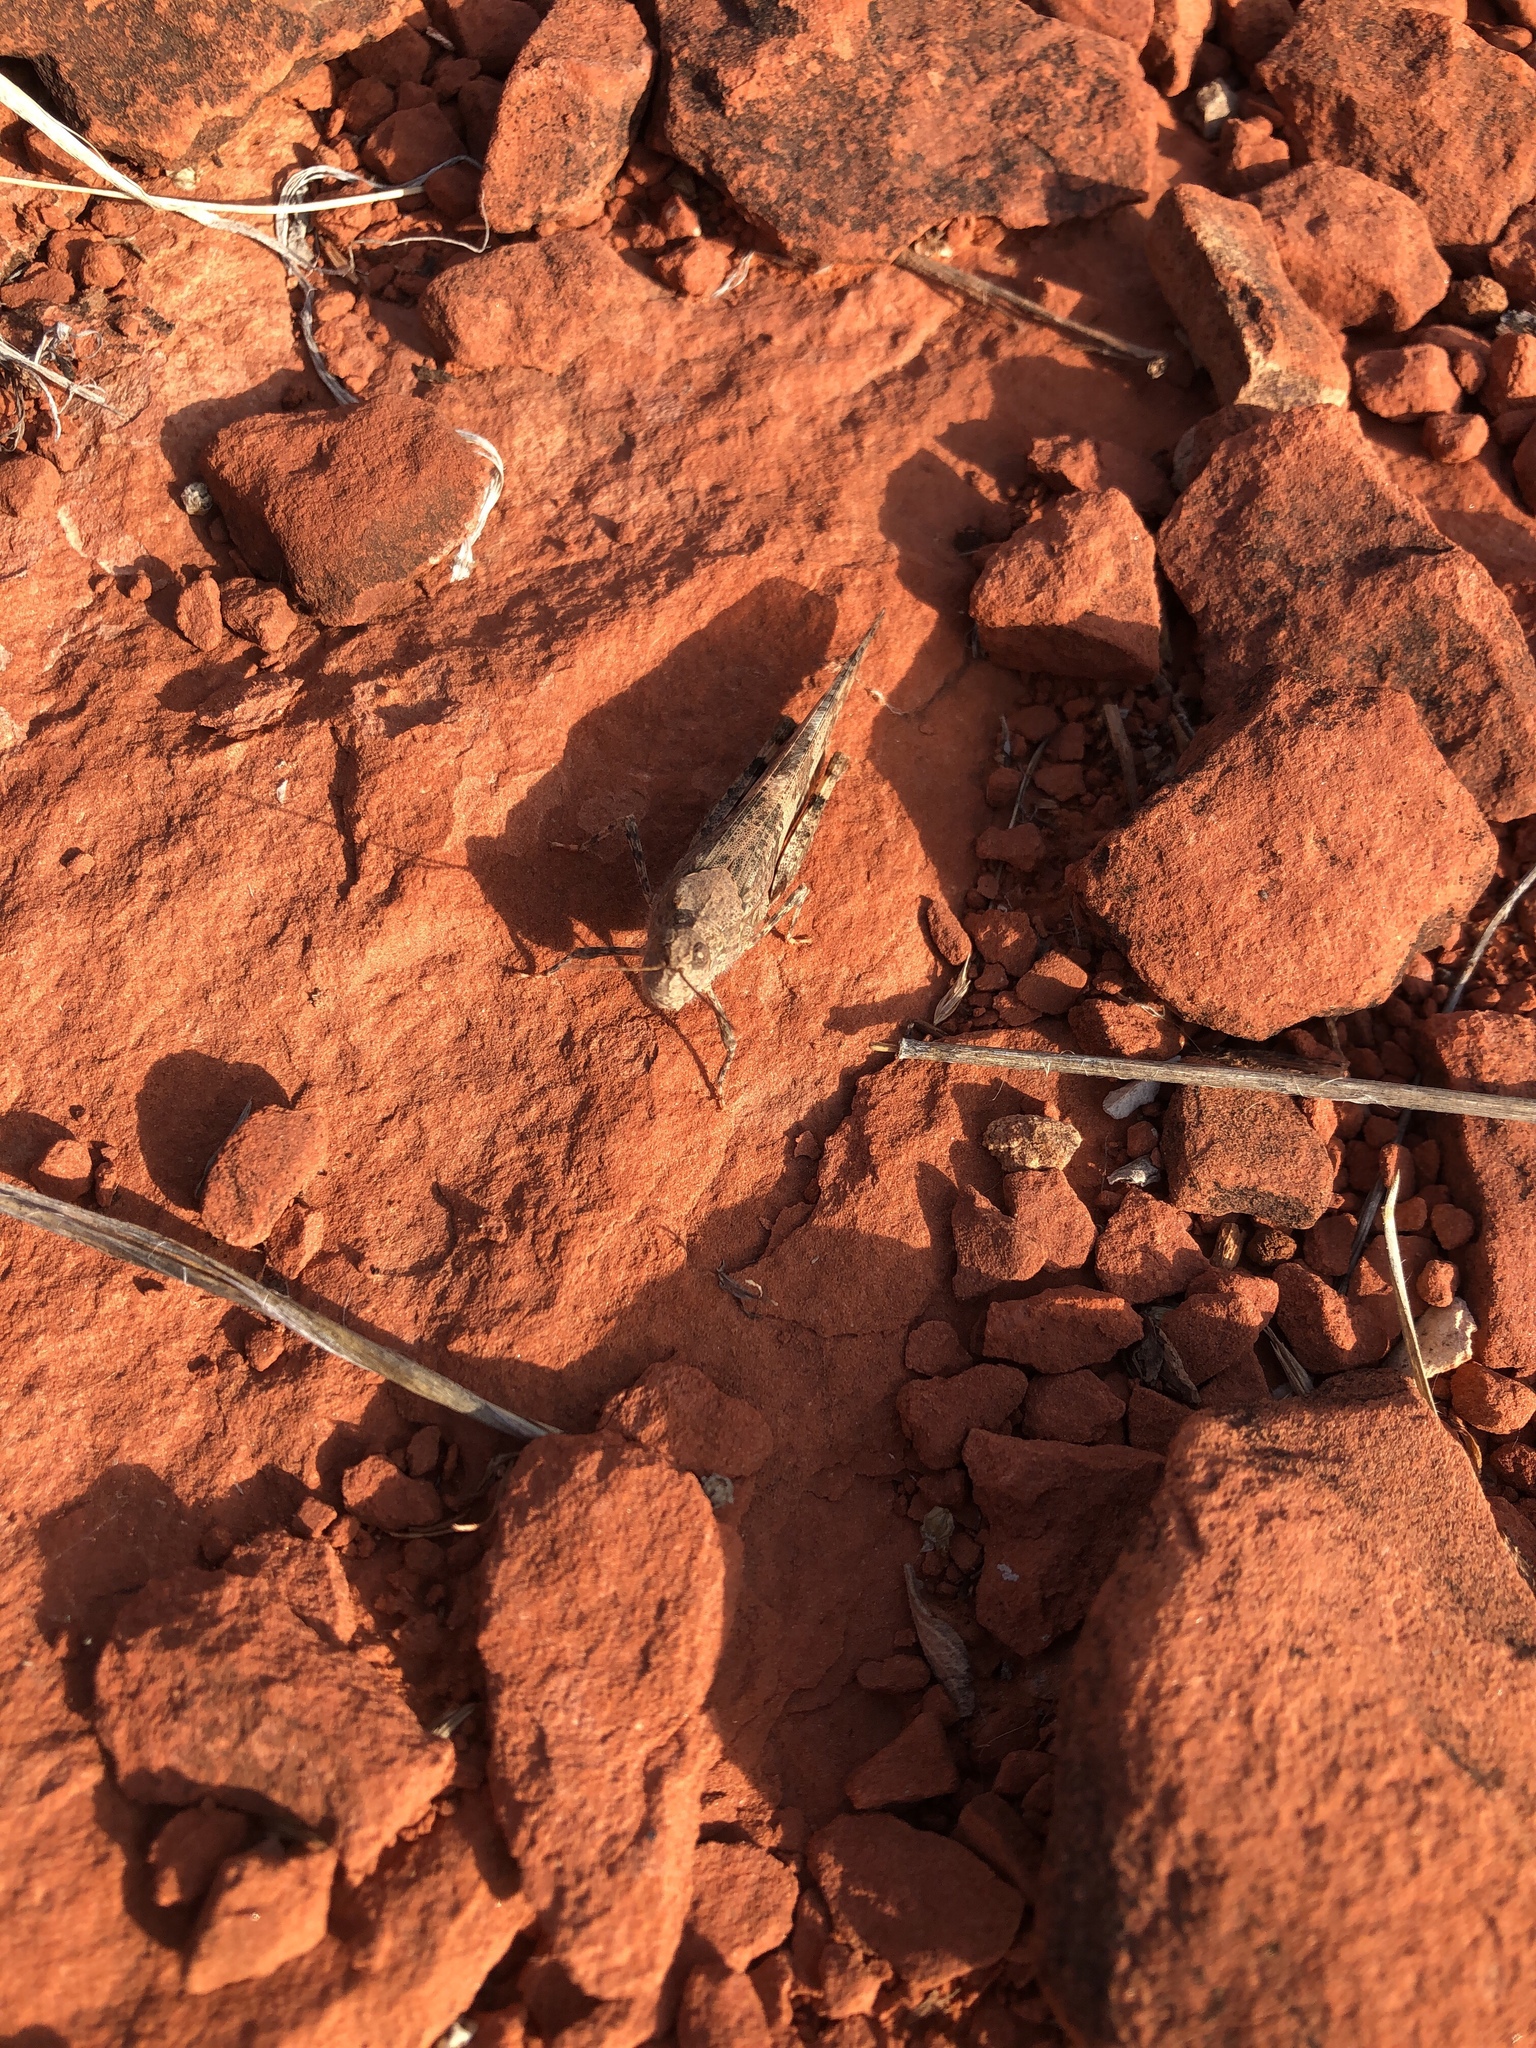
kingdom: Animalia
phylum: Arthropoda
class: Insecta
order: Orthoptera
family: Acrididae
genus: Trimerotropis
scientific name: Trimerotropis pallidipennis
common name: Pallid-winged grasshopper
